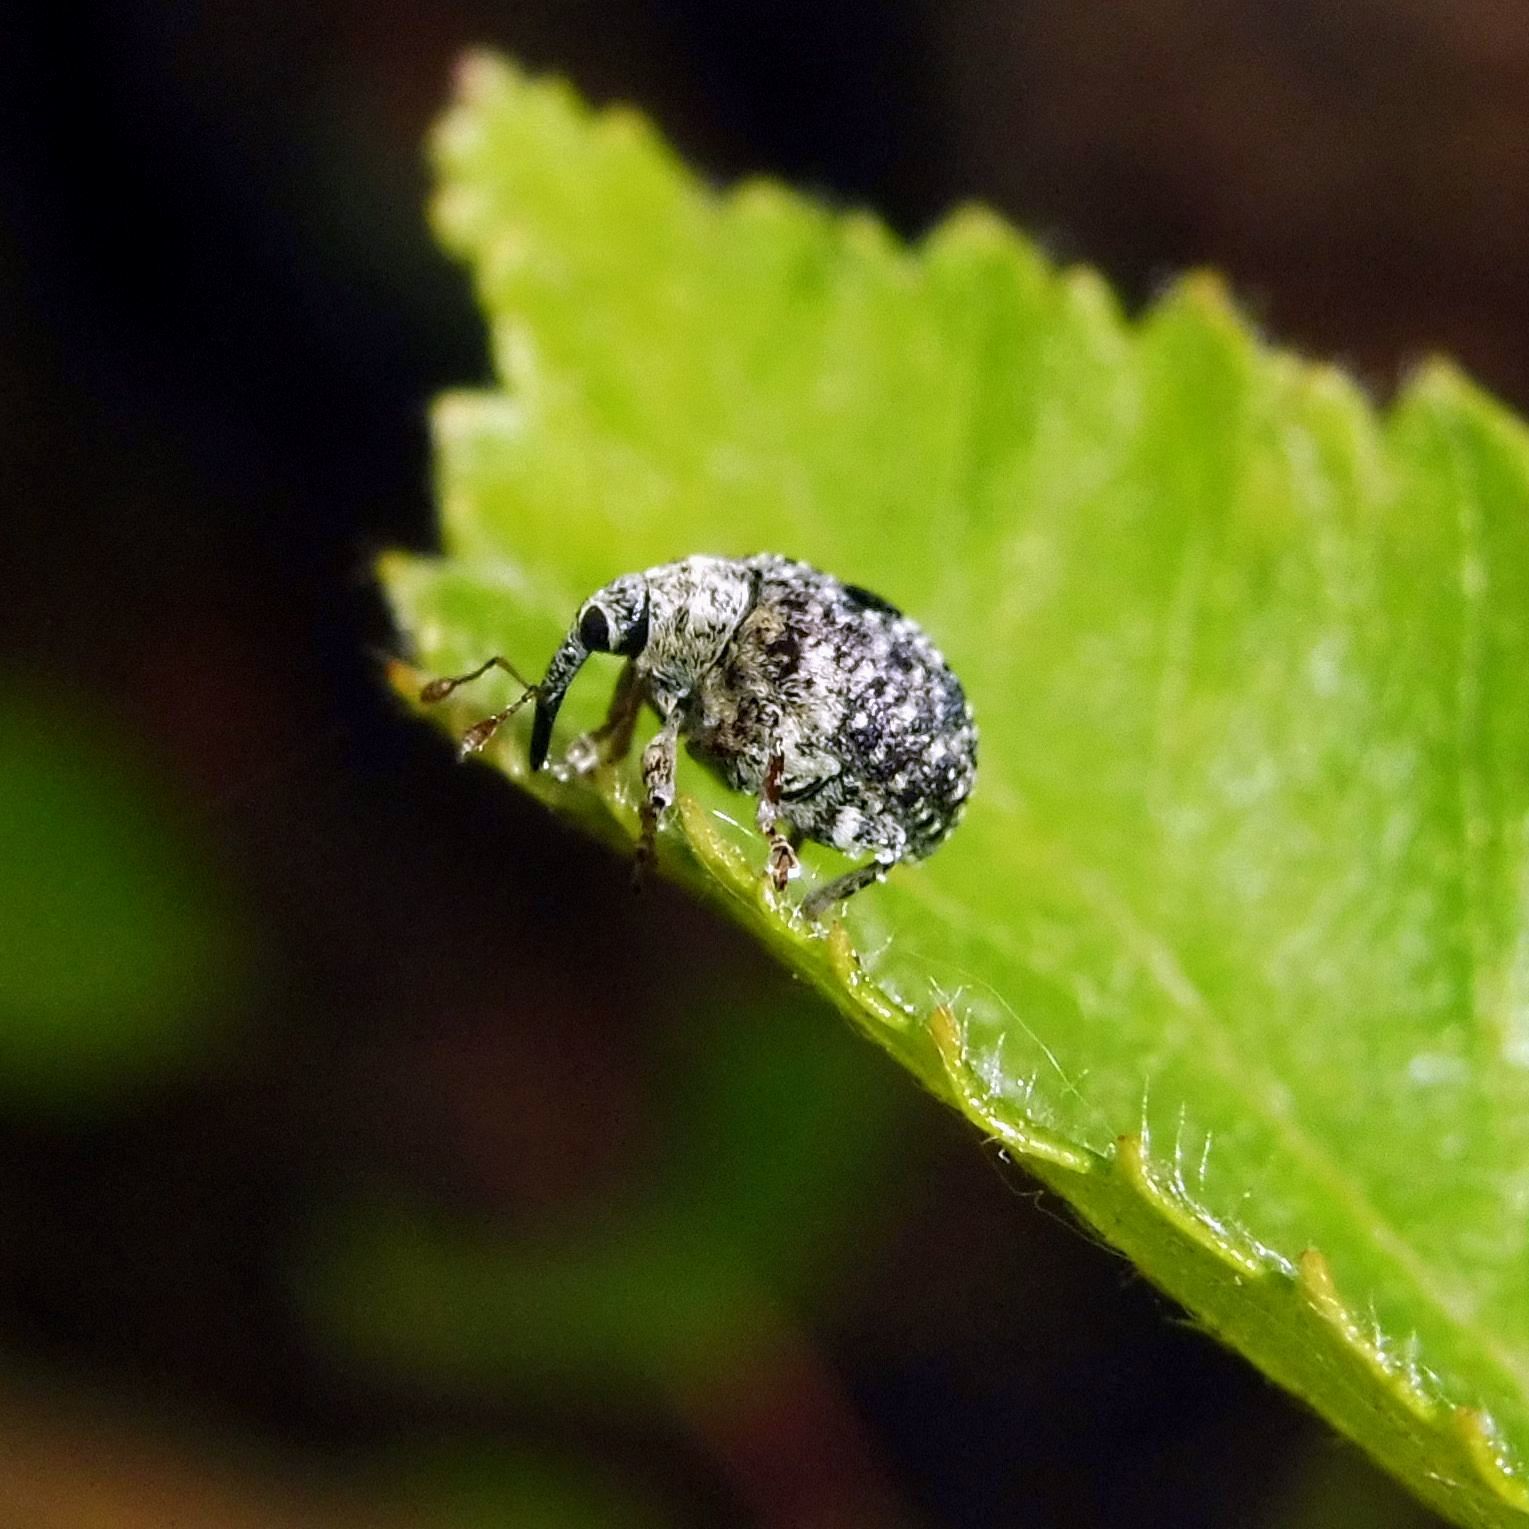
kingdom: Animalia
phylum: Arthropoda
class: Insecta
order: Coleoptera
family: Curculionidae
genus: Cionus
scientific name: Cionus hortulanus
